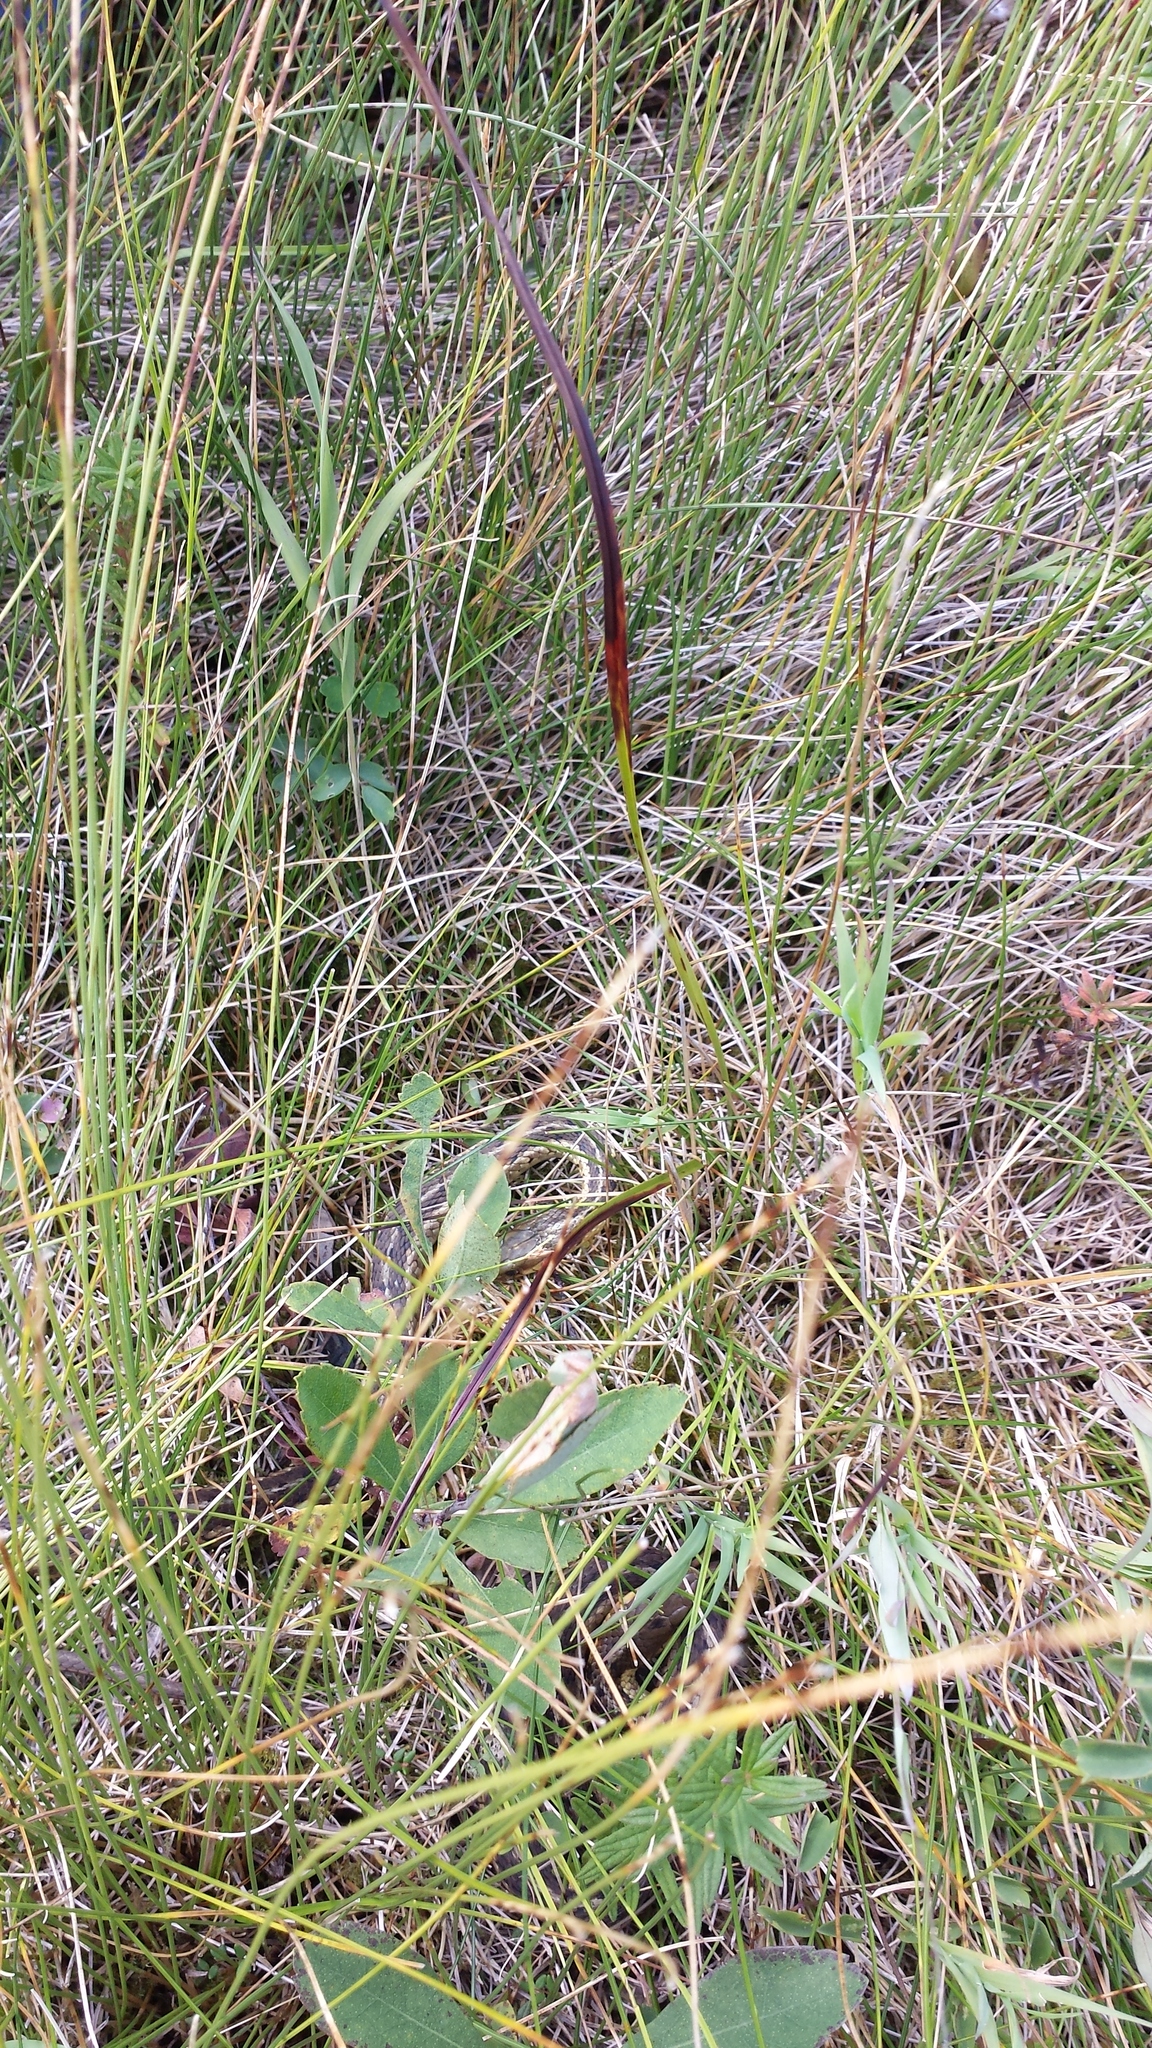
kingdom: Animalia
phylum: Chordata
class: Squamata
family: Colubridae
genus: Thamnophis
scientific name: Thamnophis sirtalis
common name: Common garter snake
